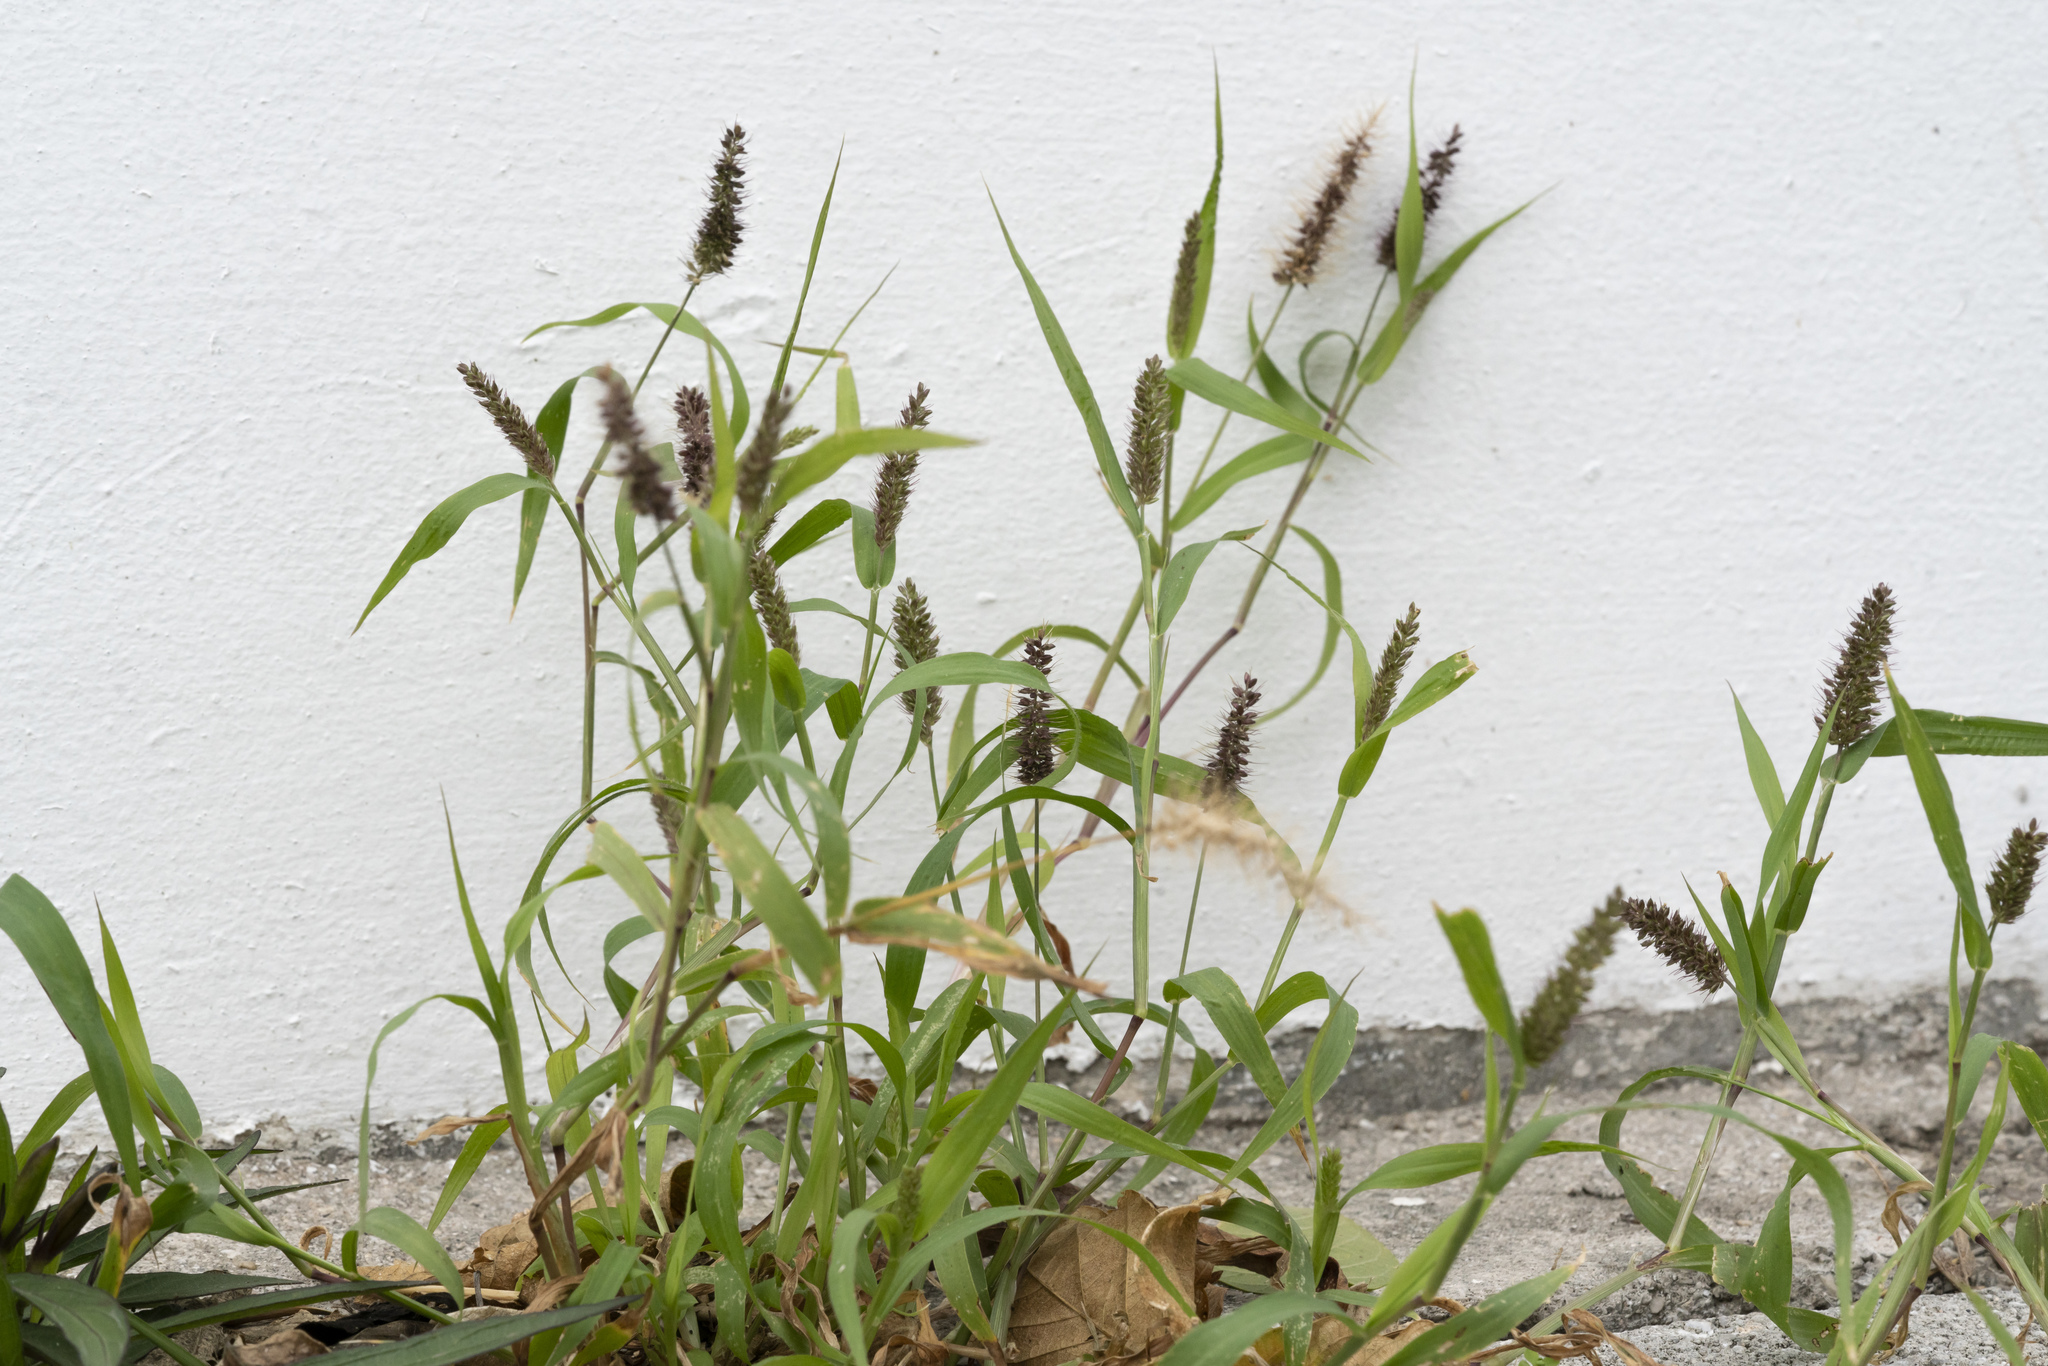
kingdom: Plantae
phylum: Tracheophyta
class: Liliopsida
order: Poales
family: Poaceae
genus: Setaria
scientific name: Setaria adhaerens
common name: Adherent bristle-grass
